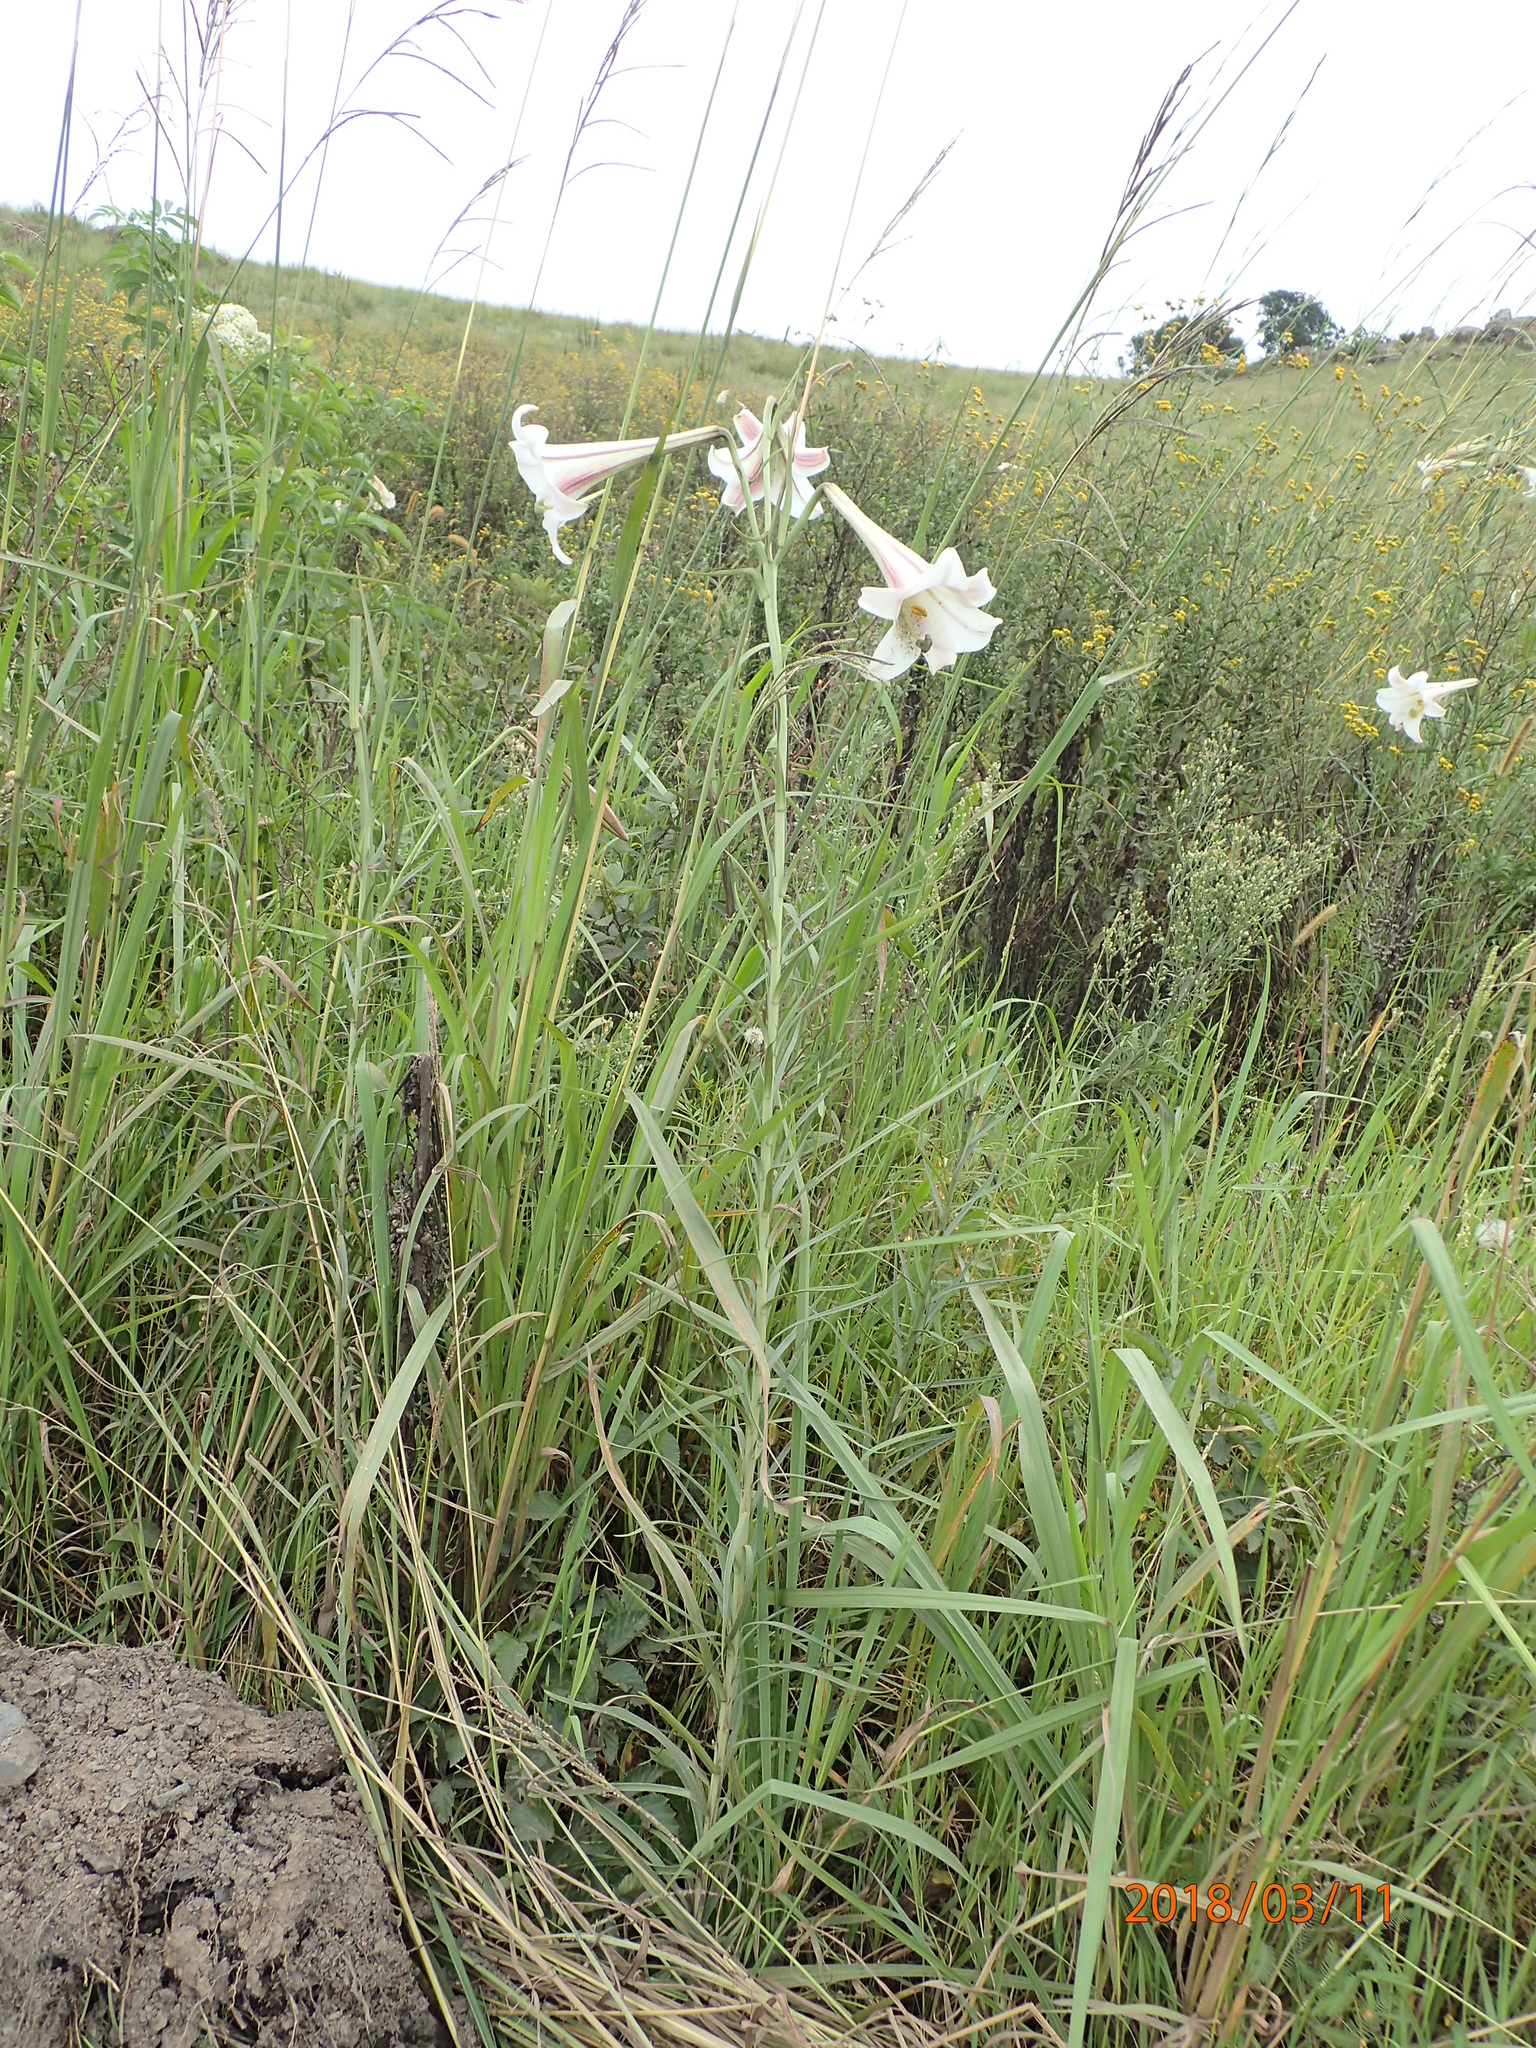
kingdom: Plantae
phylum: Tracheophyta
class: Liliopsida
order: Liliales
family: Liliaceae
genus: Lilium
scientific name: Lilium formosanum
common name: Formosa lily
